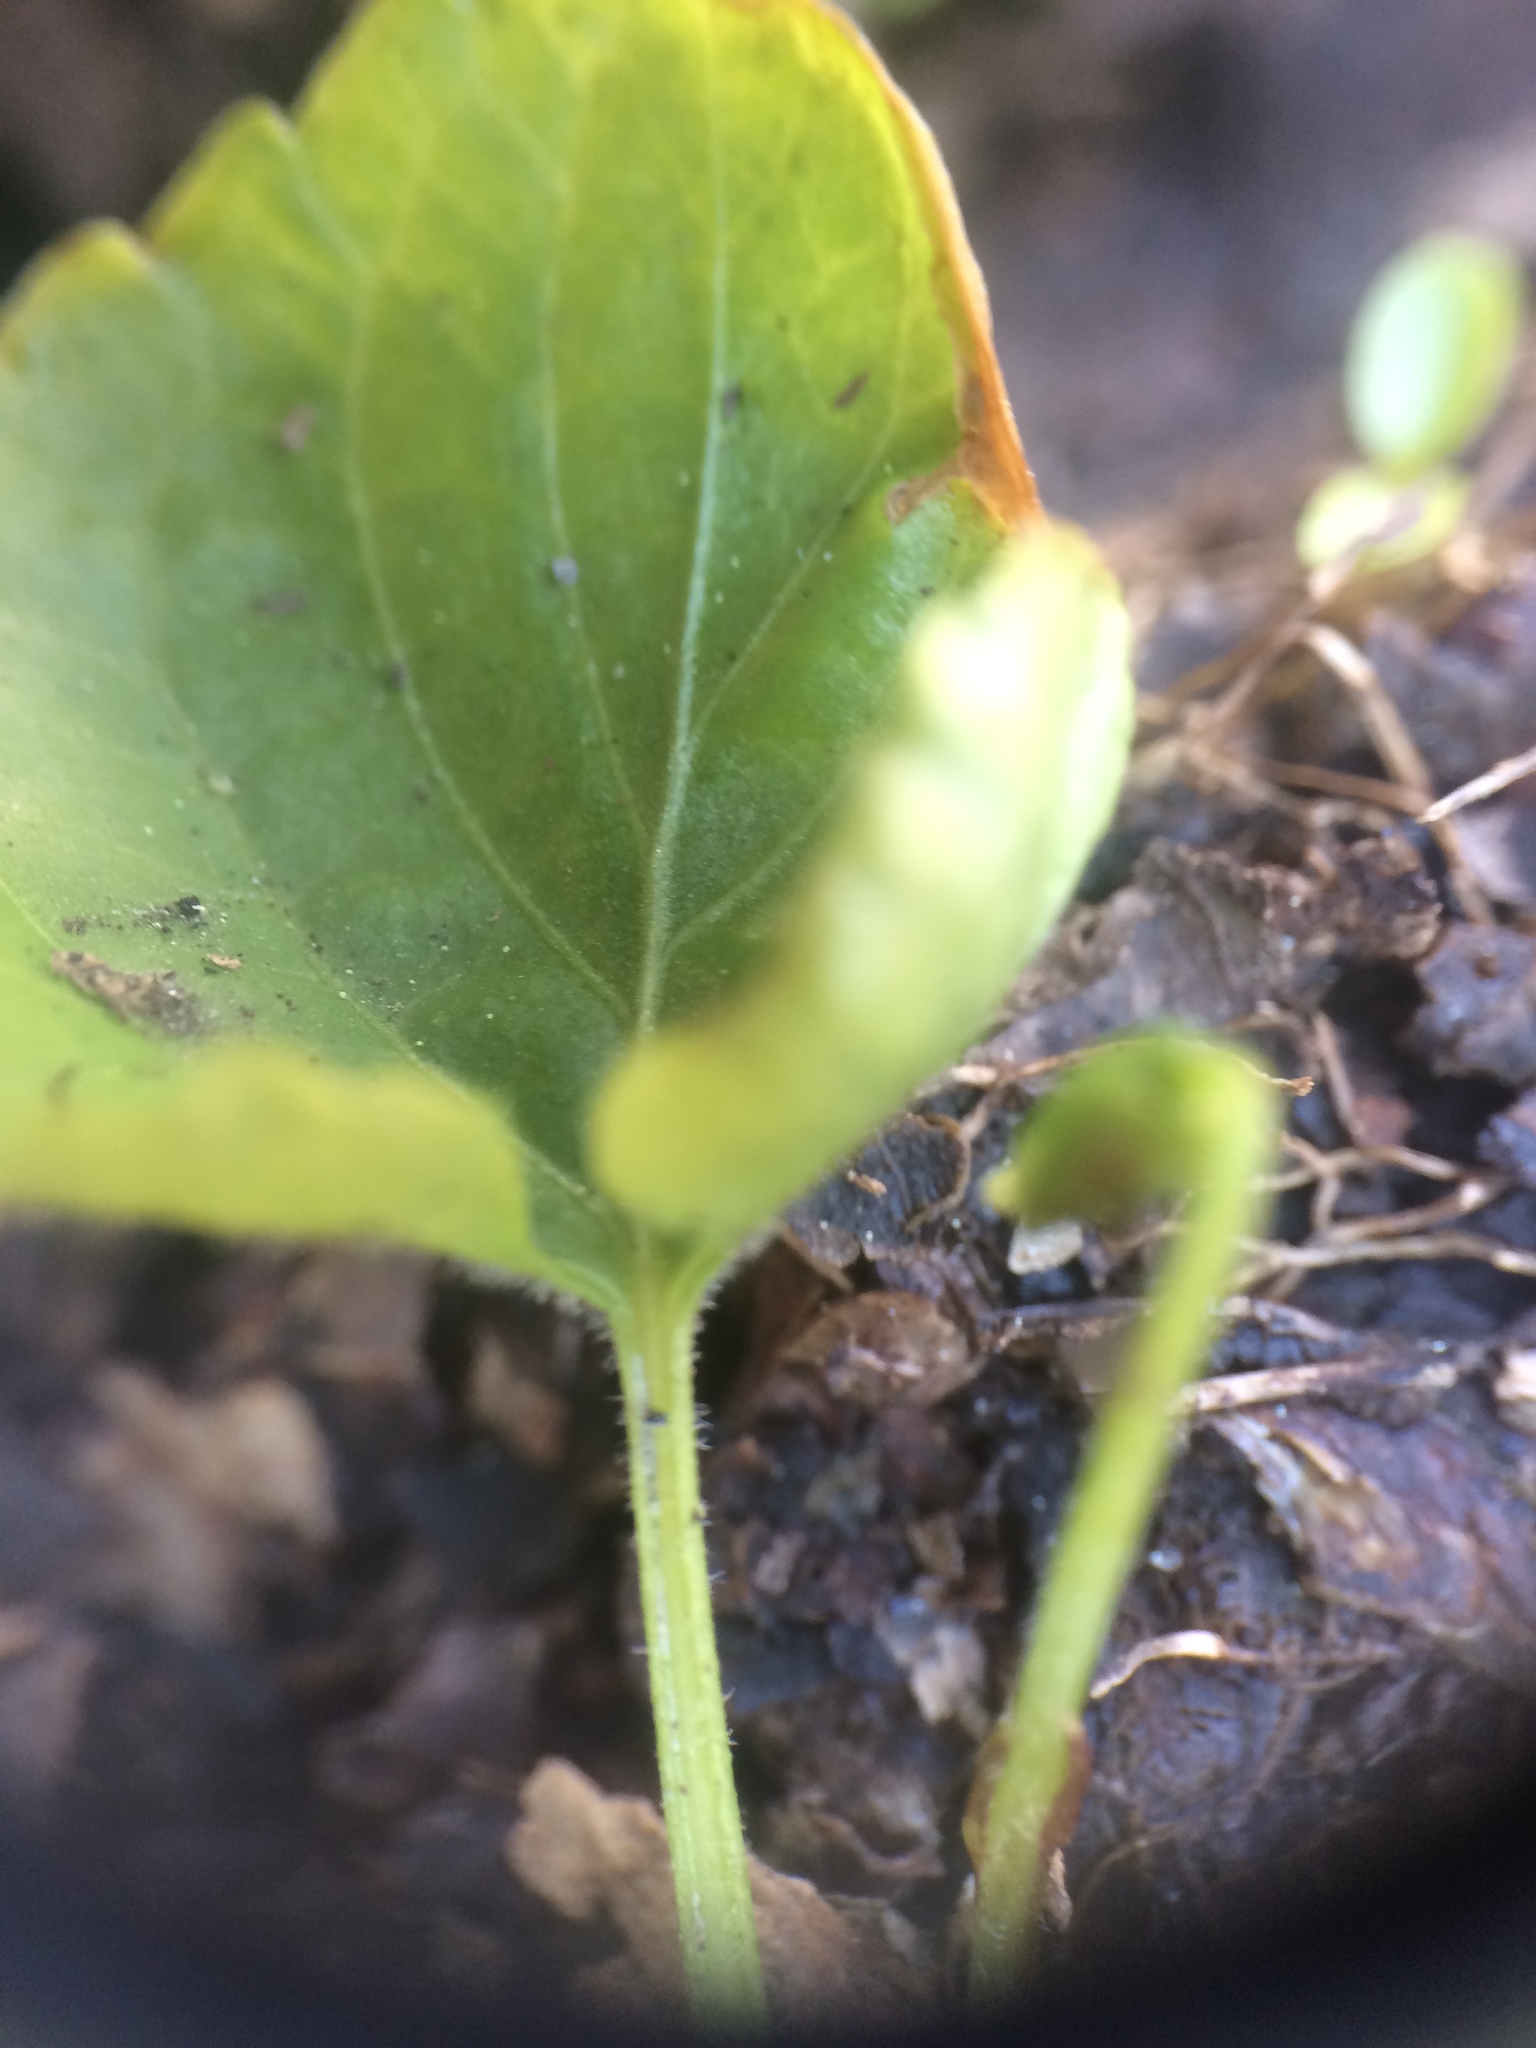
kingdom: Plantae
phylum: Tracheophyta
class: Magnoliopsida
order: Malpighiales
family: Violaceae
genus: Viola
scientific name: Viola incognita
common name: Largeleaf white violet
